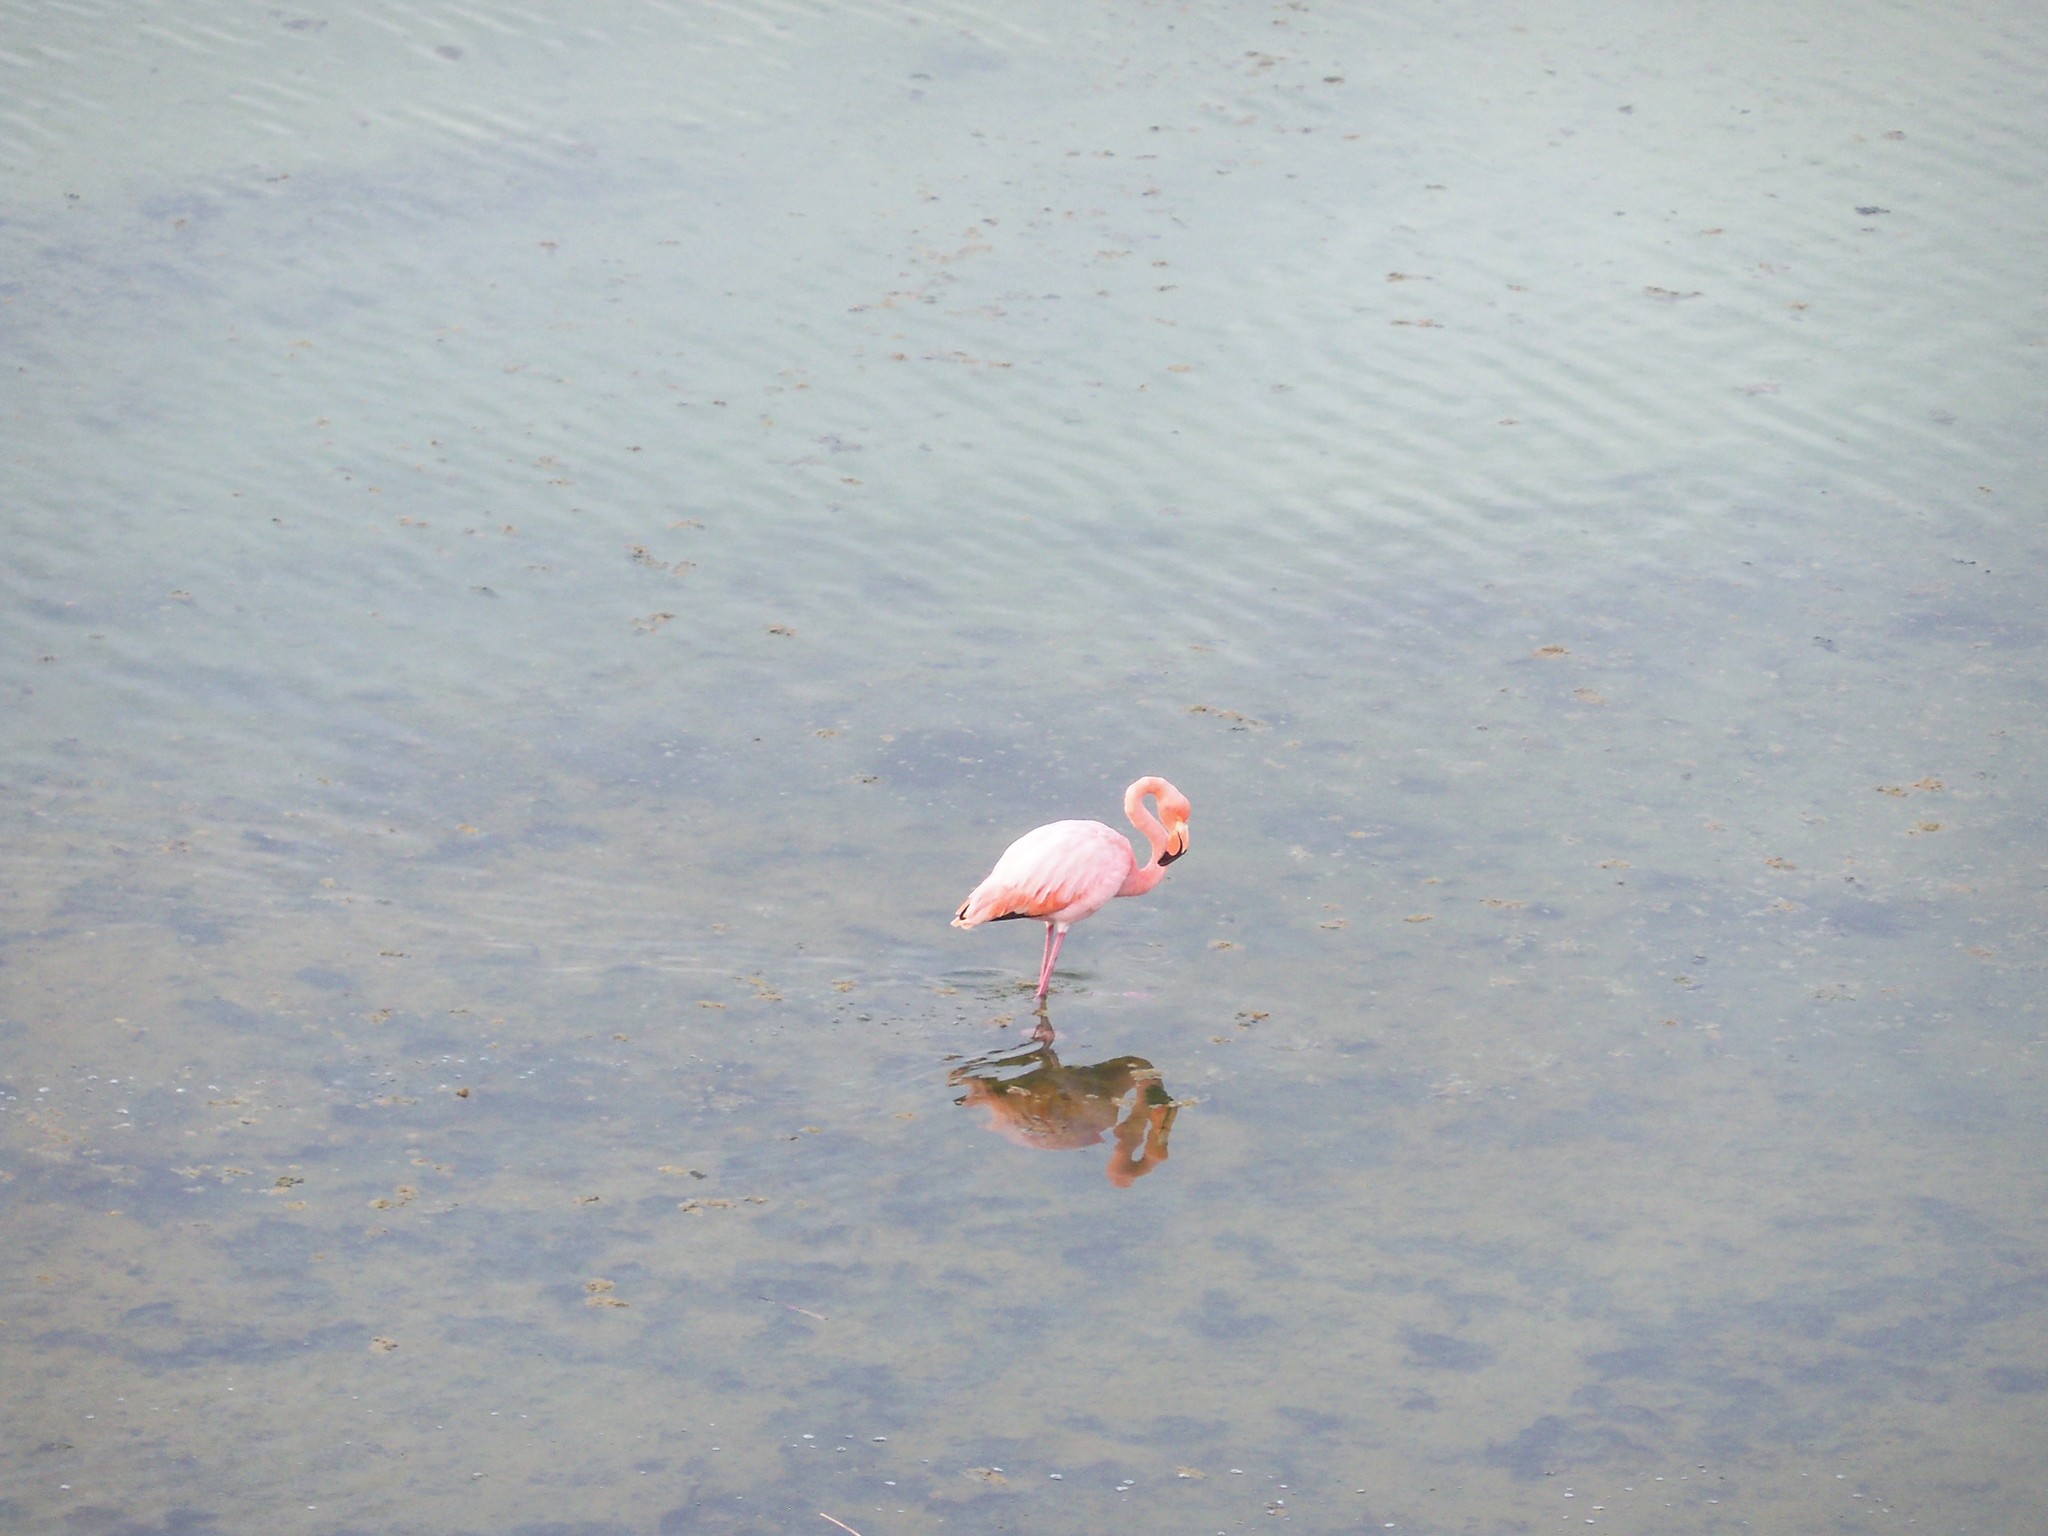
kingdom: Animalia
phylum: Chordata
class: Aves
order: Phoenicopteriformes
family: Phoenicopteridae
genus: Phoenicopterus
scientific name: Phoenicopterus ruber
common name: American flamingo
